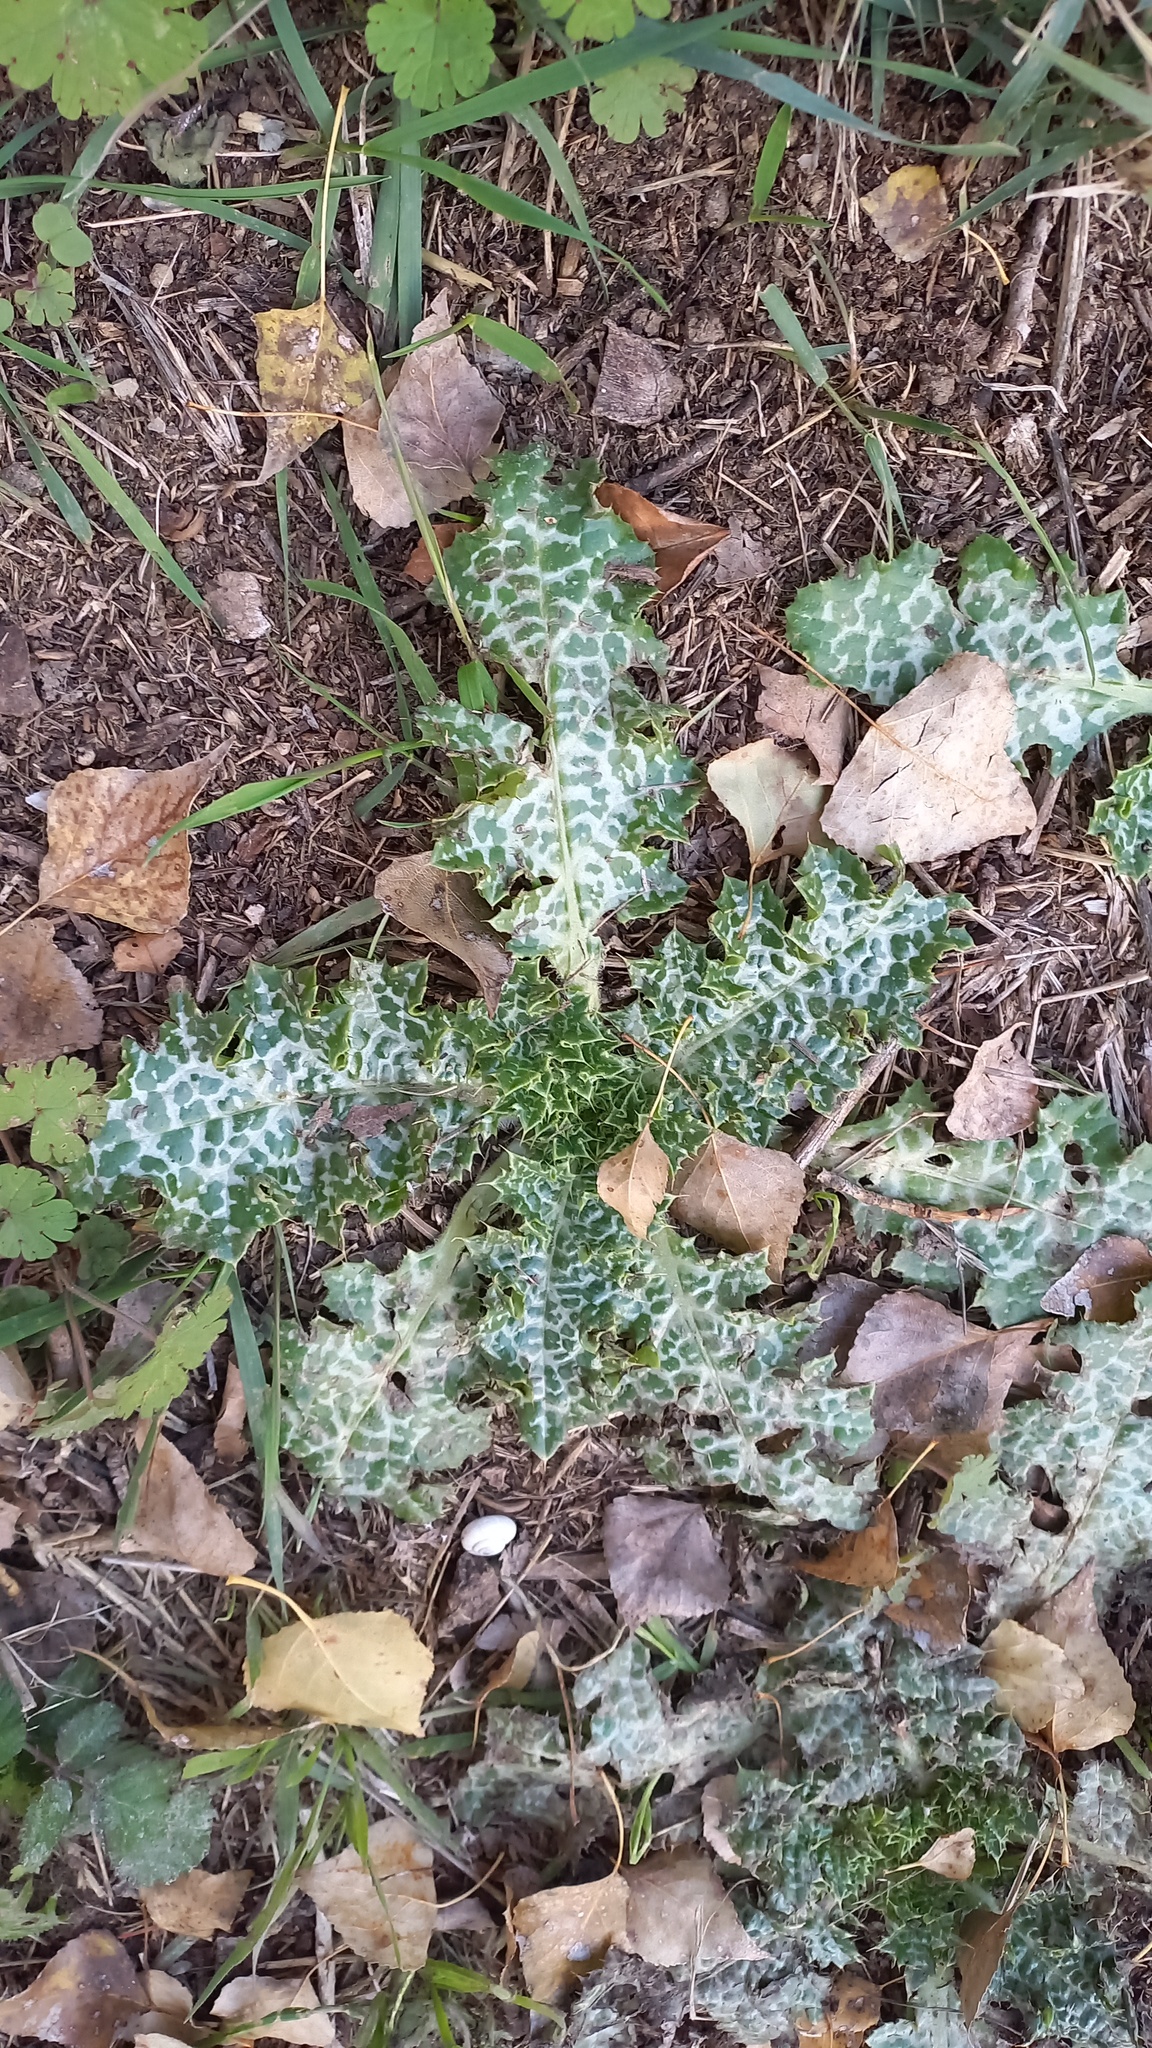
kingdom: Plantae
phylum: Tracheophyta
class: Magnoliopsida
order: Asterales
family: Asteraceae
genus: Silybum
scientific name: Silybum marianum
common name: Milk thistle
